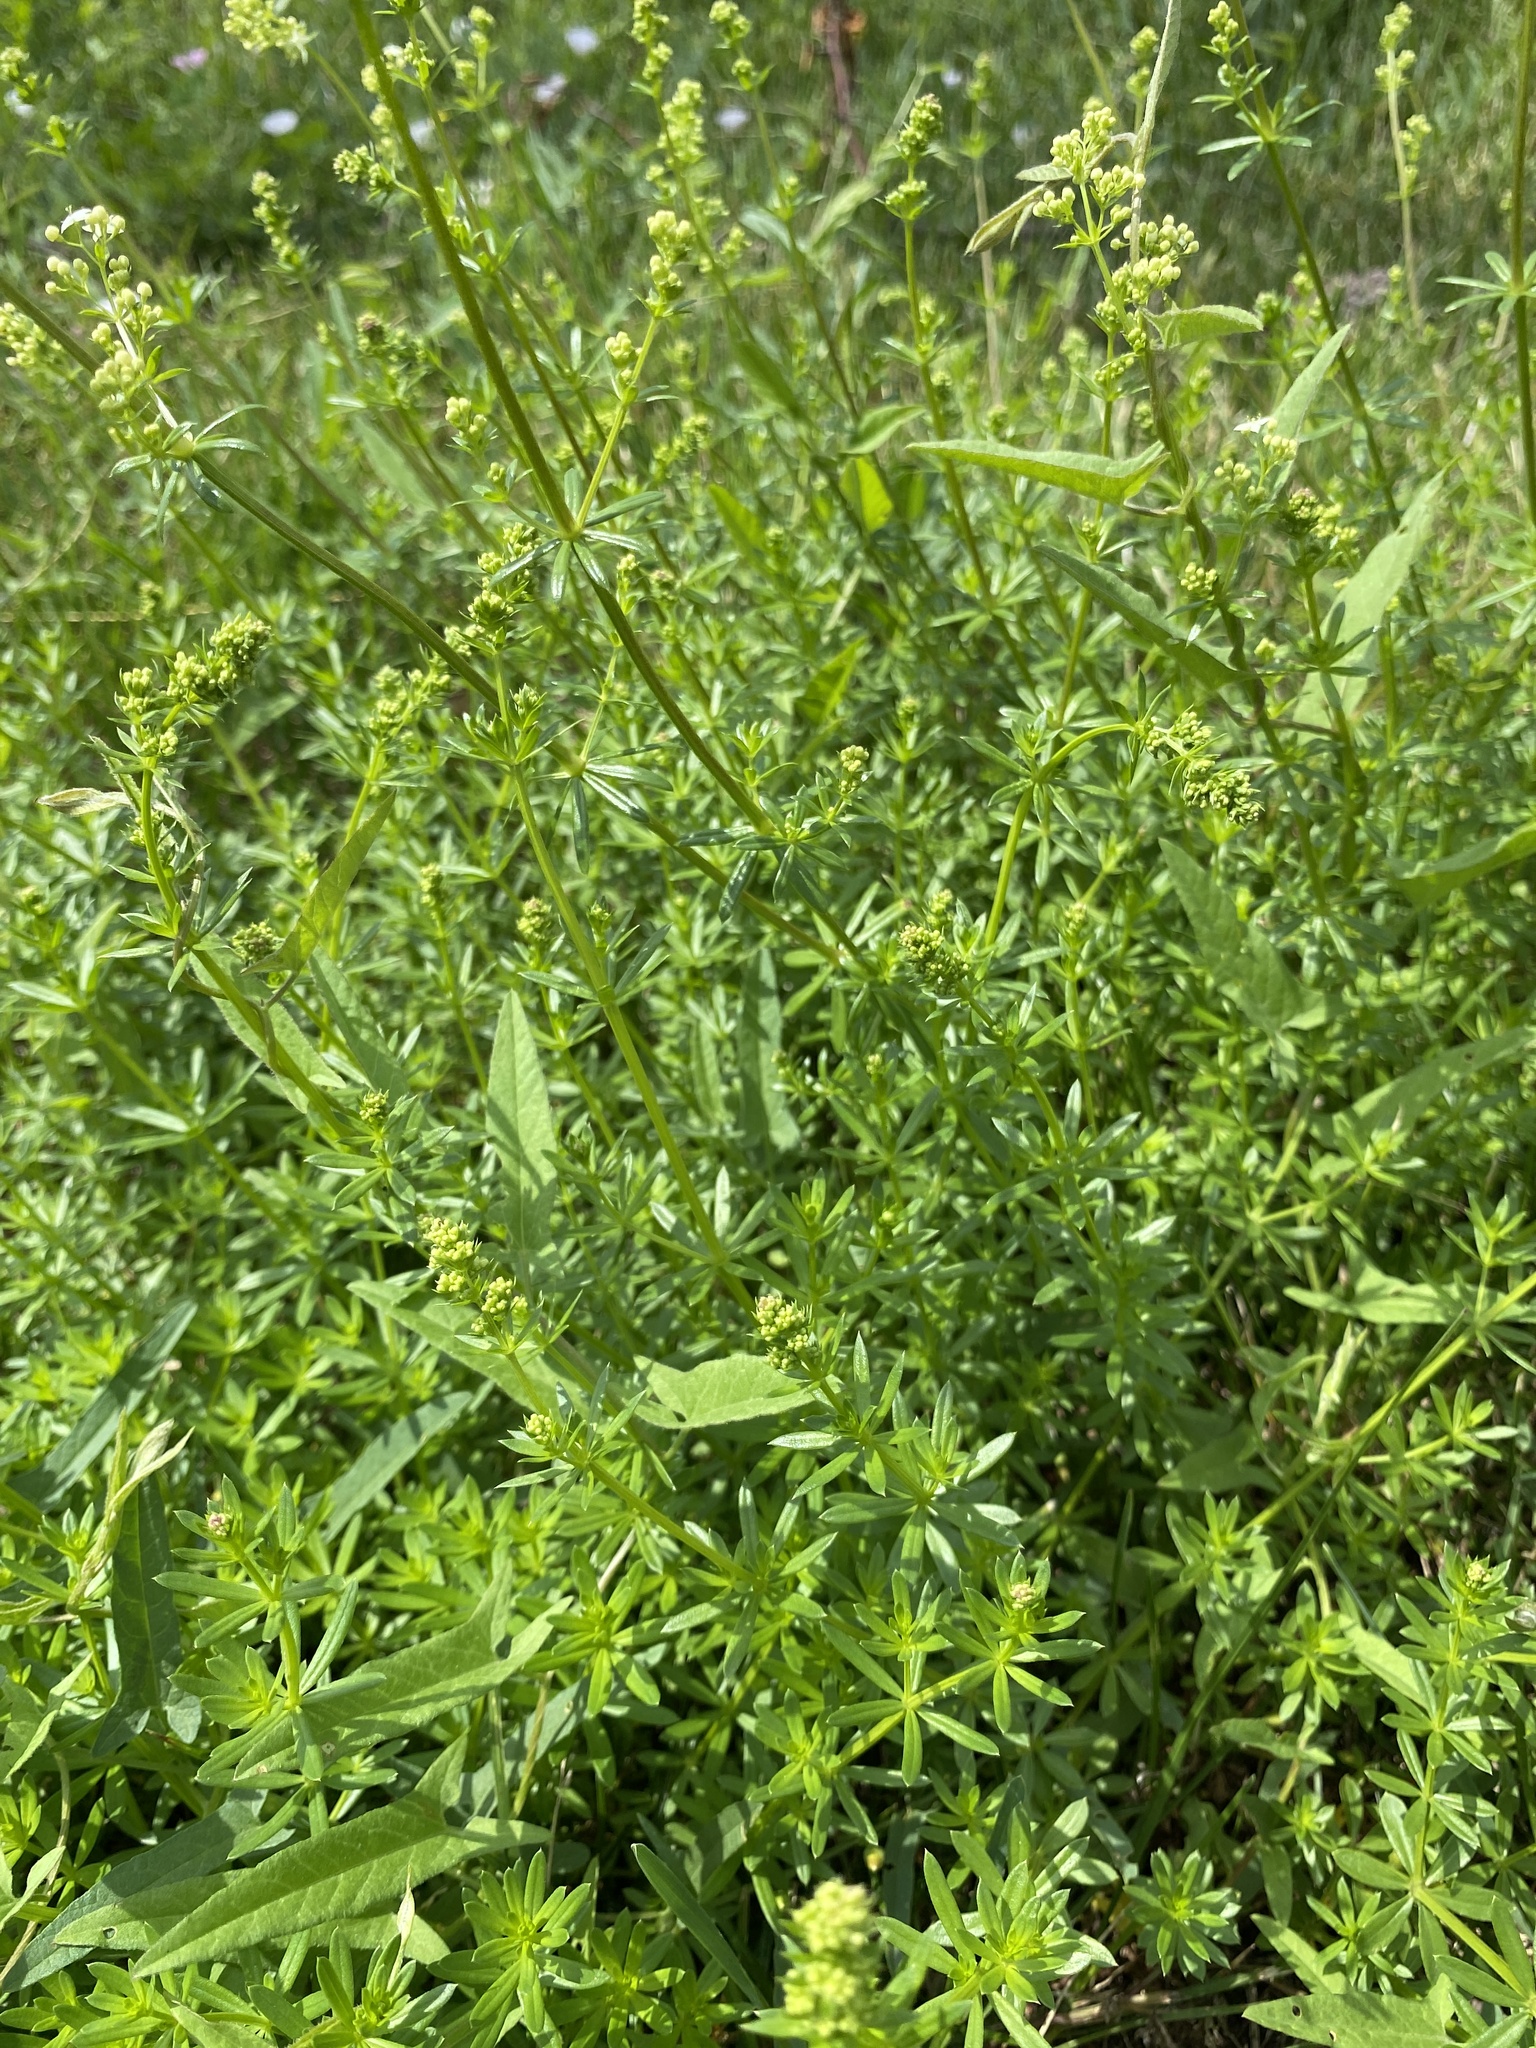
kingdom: Plantae
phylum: Tracheophyta
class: Magnoliopsida
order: Gentianales
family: Rubiaceae
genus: Galium
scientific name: Galium mollugo
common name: Hedge bedstraw
